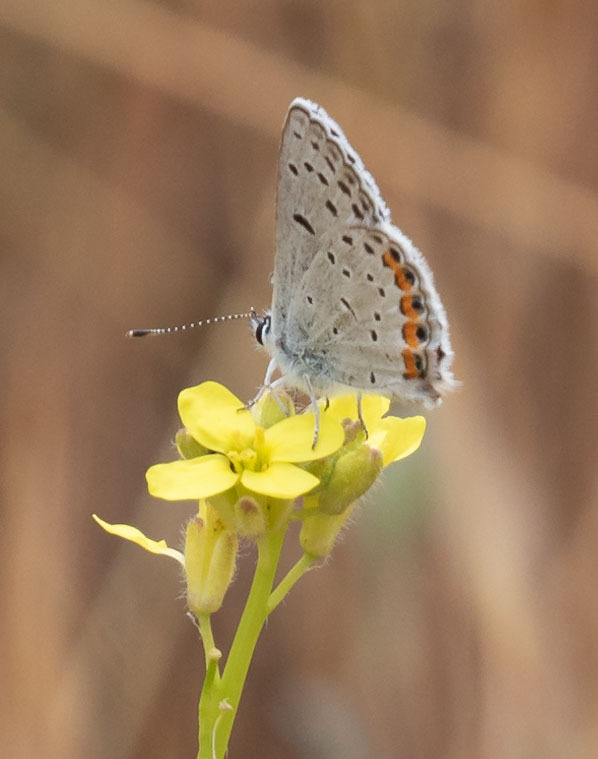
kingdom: Animalia
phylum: Arthropoda
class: Insecta
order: Lepidoptera
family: Lycaenidae
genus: Icaricia
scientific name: Icaricia acmon
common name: Acmon blue
